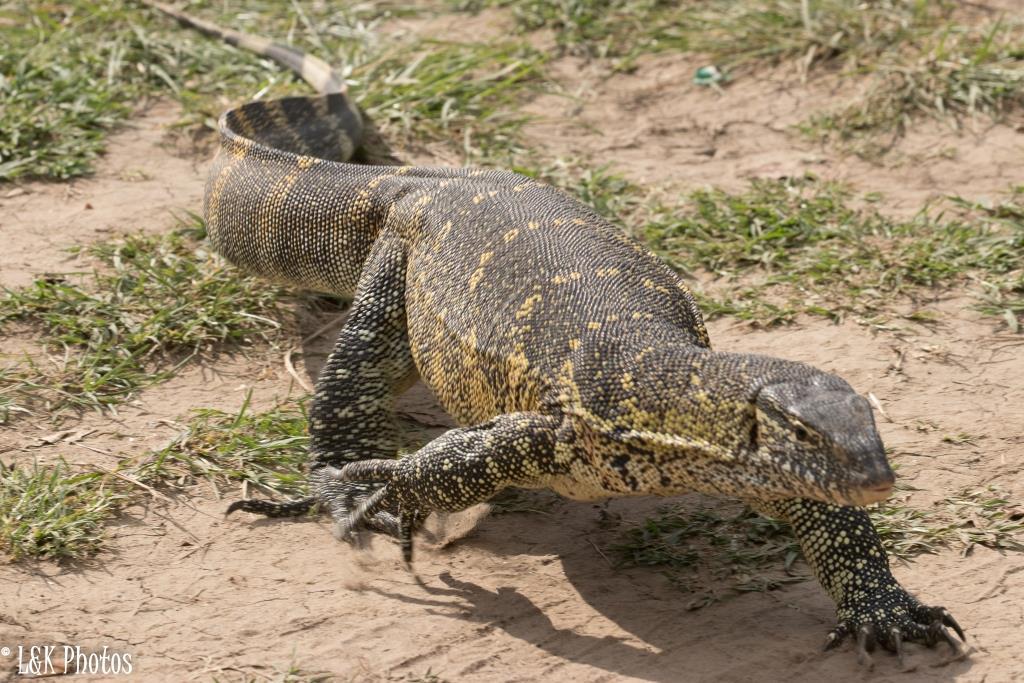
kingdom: Animalia
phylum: Chordata
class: Squamata
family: Varanidae
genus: Varanus
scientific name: Varanus niloticus
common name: Nile monitor
